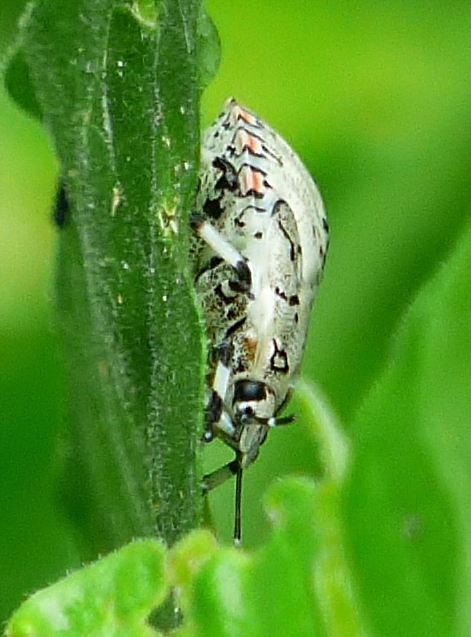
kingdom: Animalia
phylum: Arthropoda
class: Insecta
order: Hemiptera
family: Pentatomidae
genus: Apateticus
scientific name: Apateticus lineolatus
